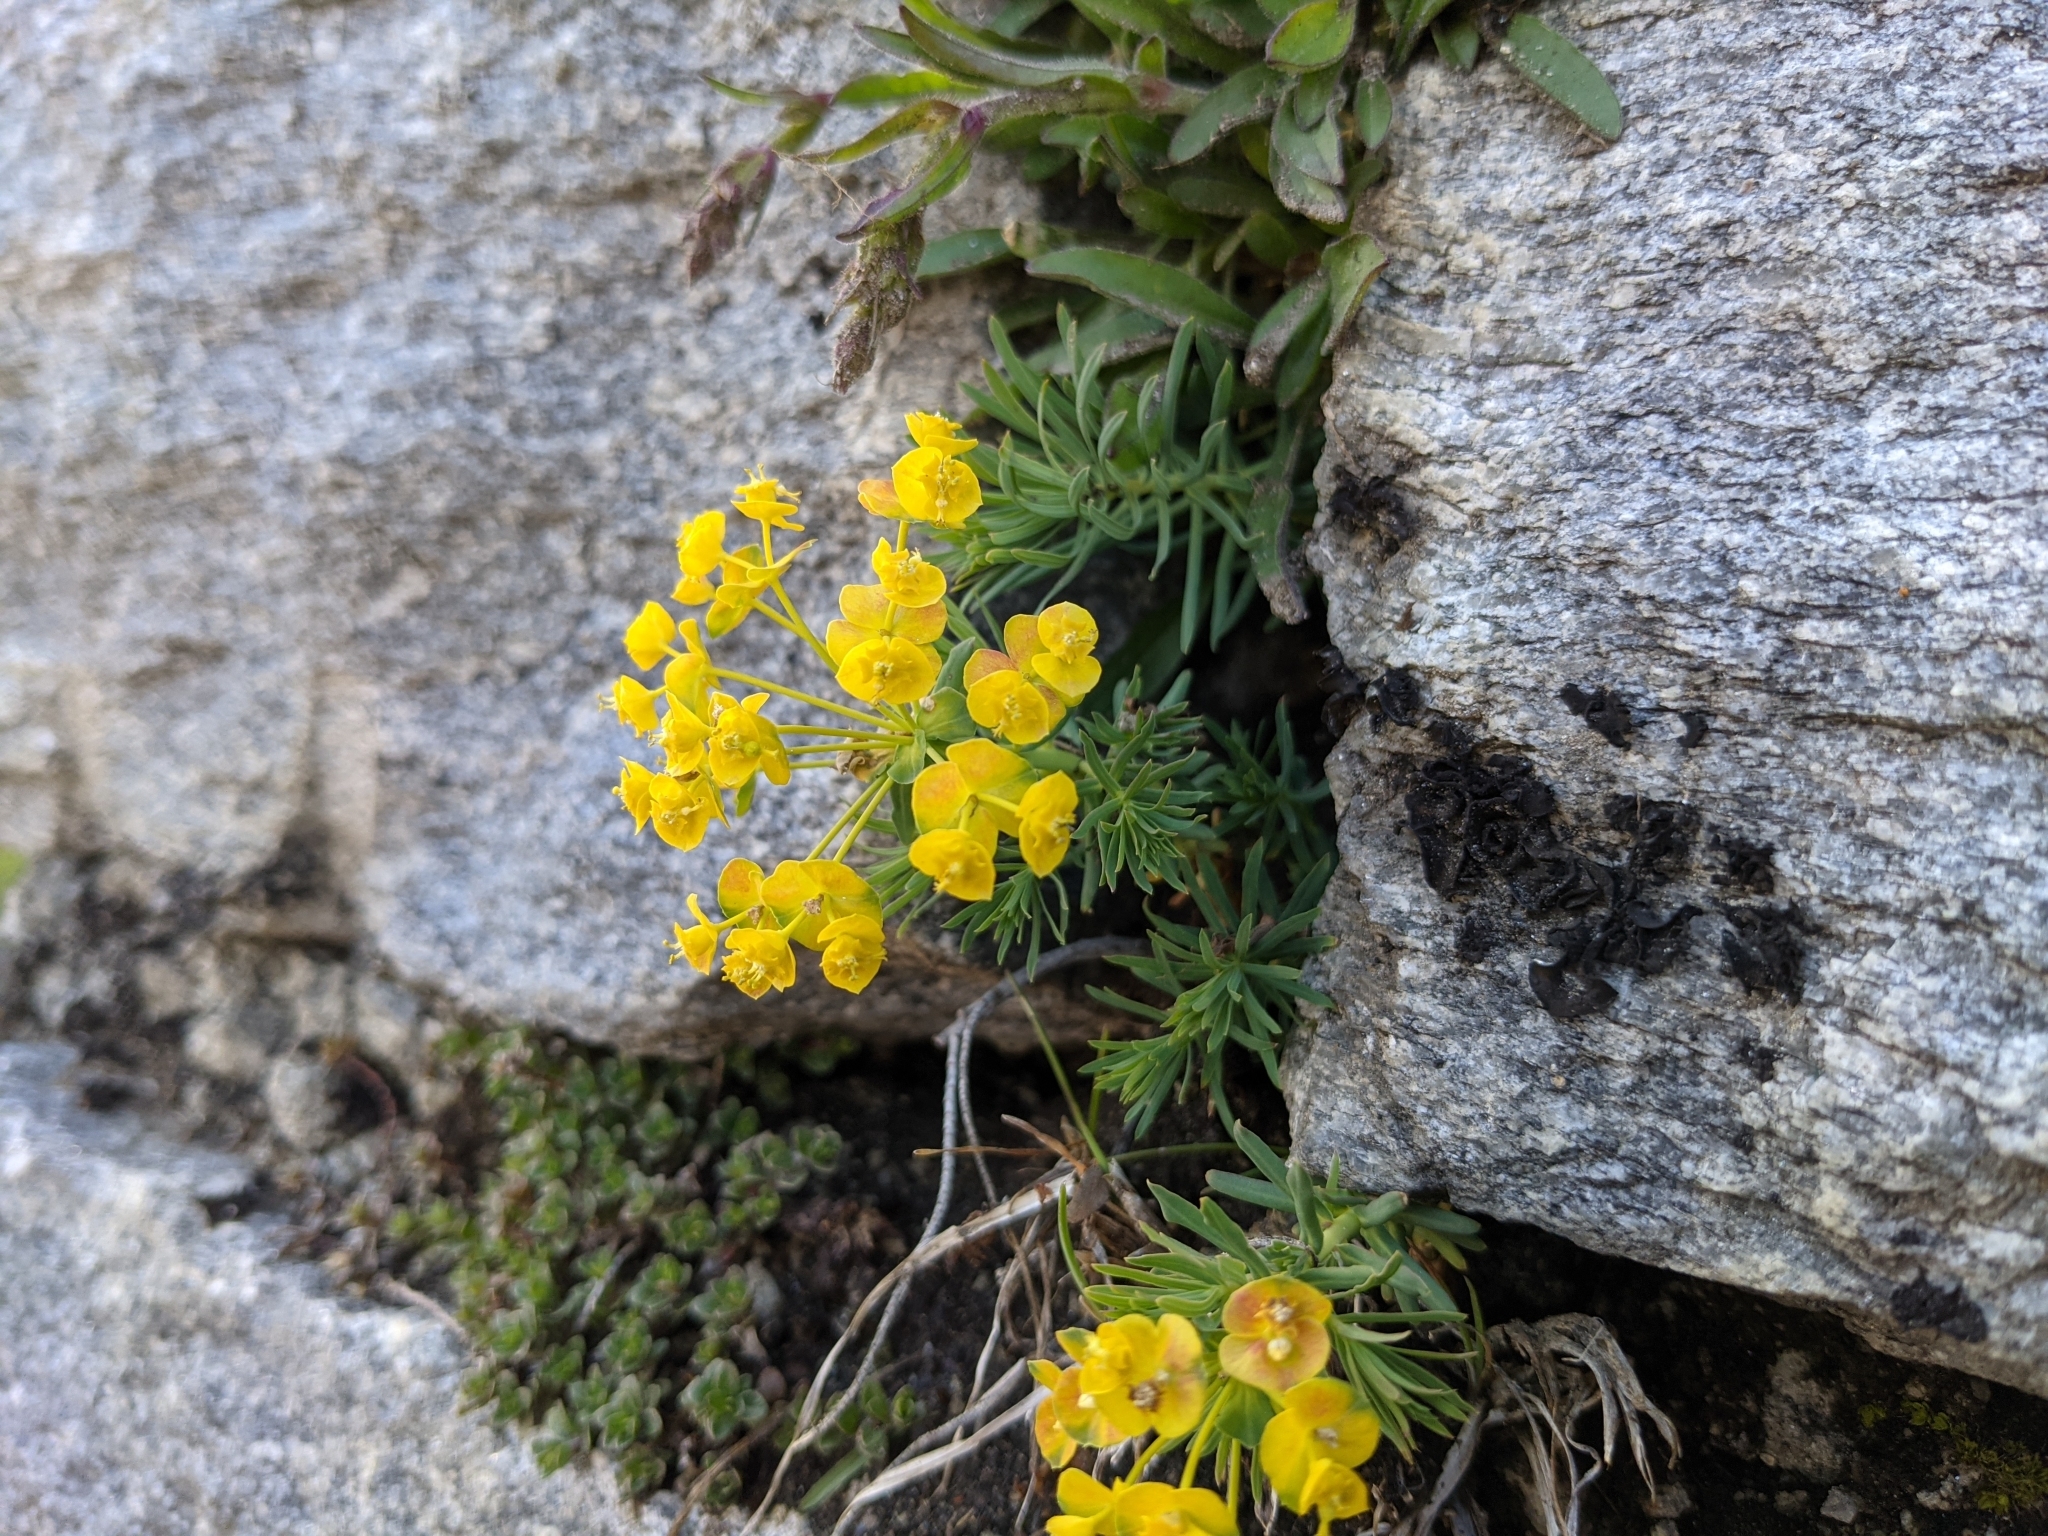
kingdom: Plantae
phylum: Tracheophyta
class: Magnoliopsida
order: Malpighiales
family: Euphorbiaceae
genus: Euphorbia
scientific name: Euphorbia cyparissias
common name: Cypress spurge
